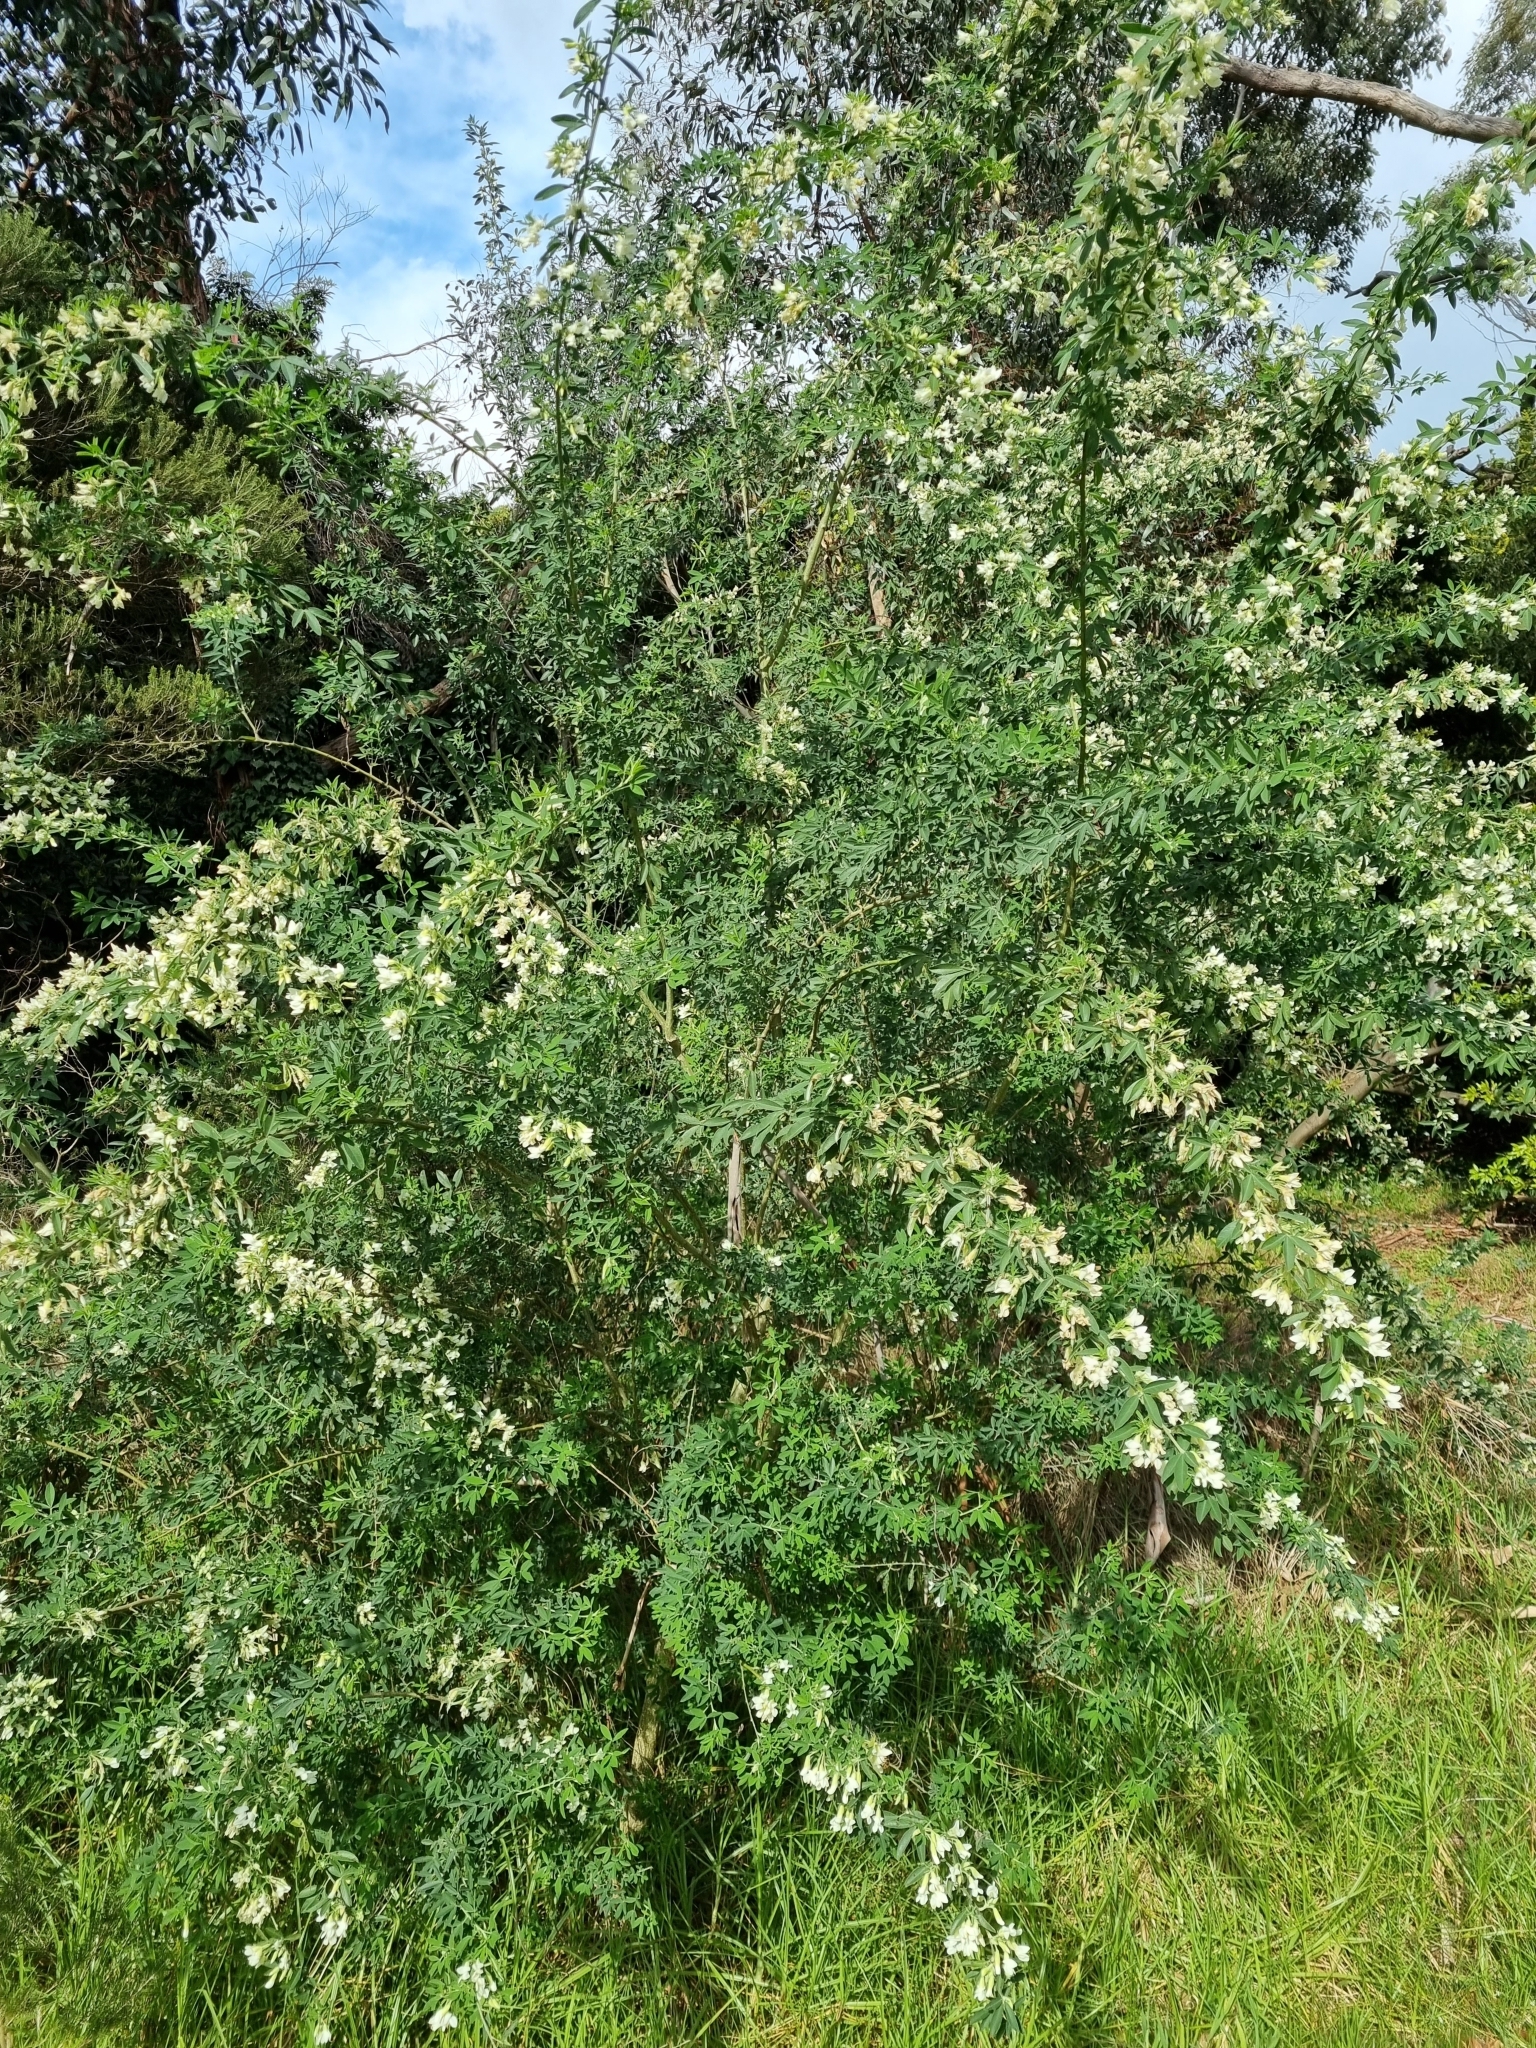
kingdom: Plantae
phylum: Tracheophyta
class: Magnoliopsida
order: Fabales
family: Fabaceae
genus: Chamaecytisus
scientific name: Chamaecytisus prolifer
